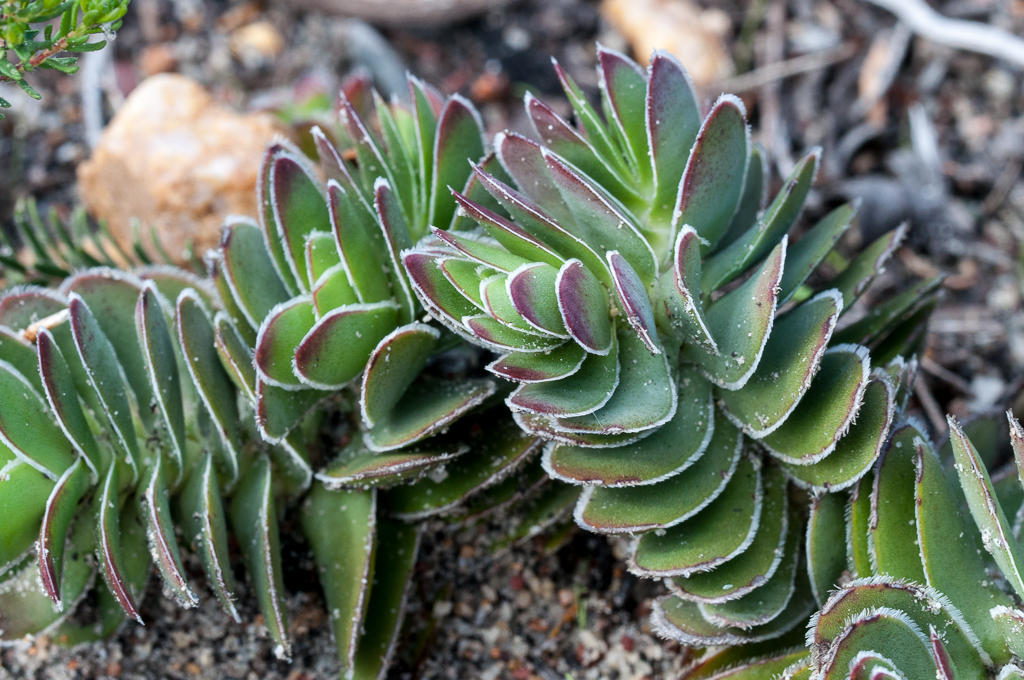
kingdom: Plantae
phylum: Tracheophyta
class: Magnoliopsida
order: Saxifragales
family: Crassulaceae
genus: Crassula
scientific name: Crassula ciliata
